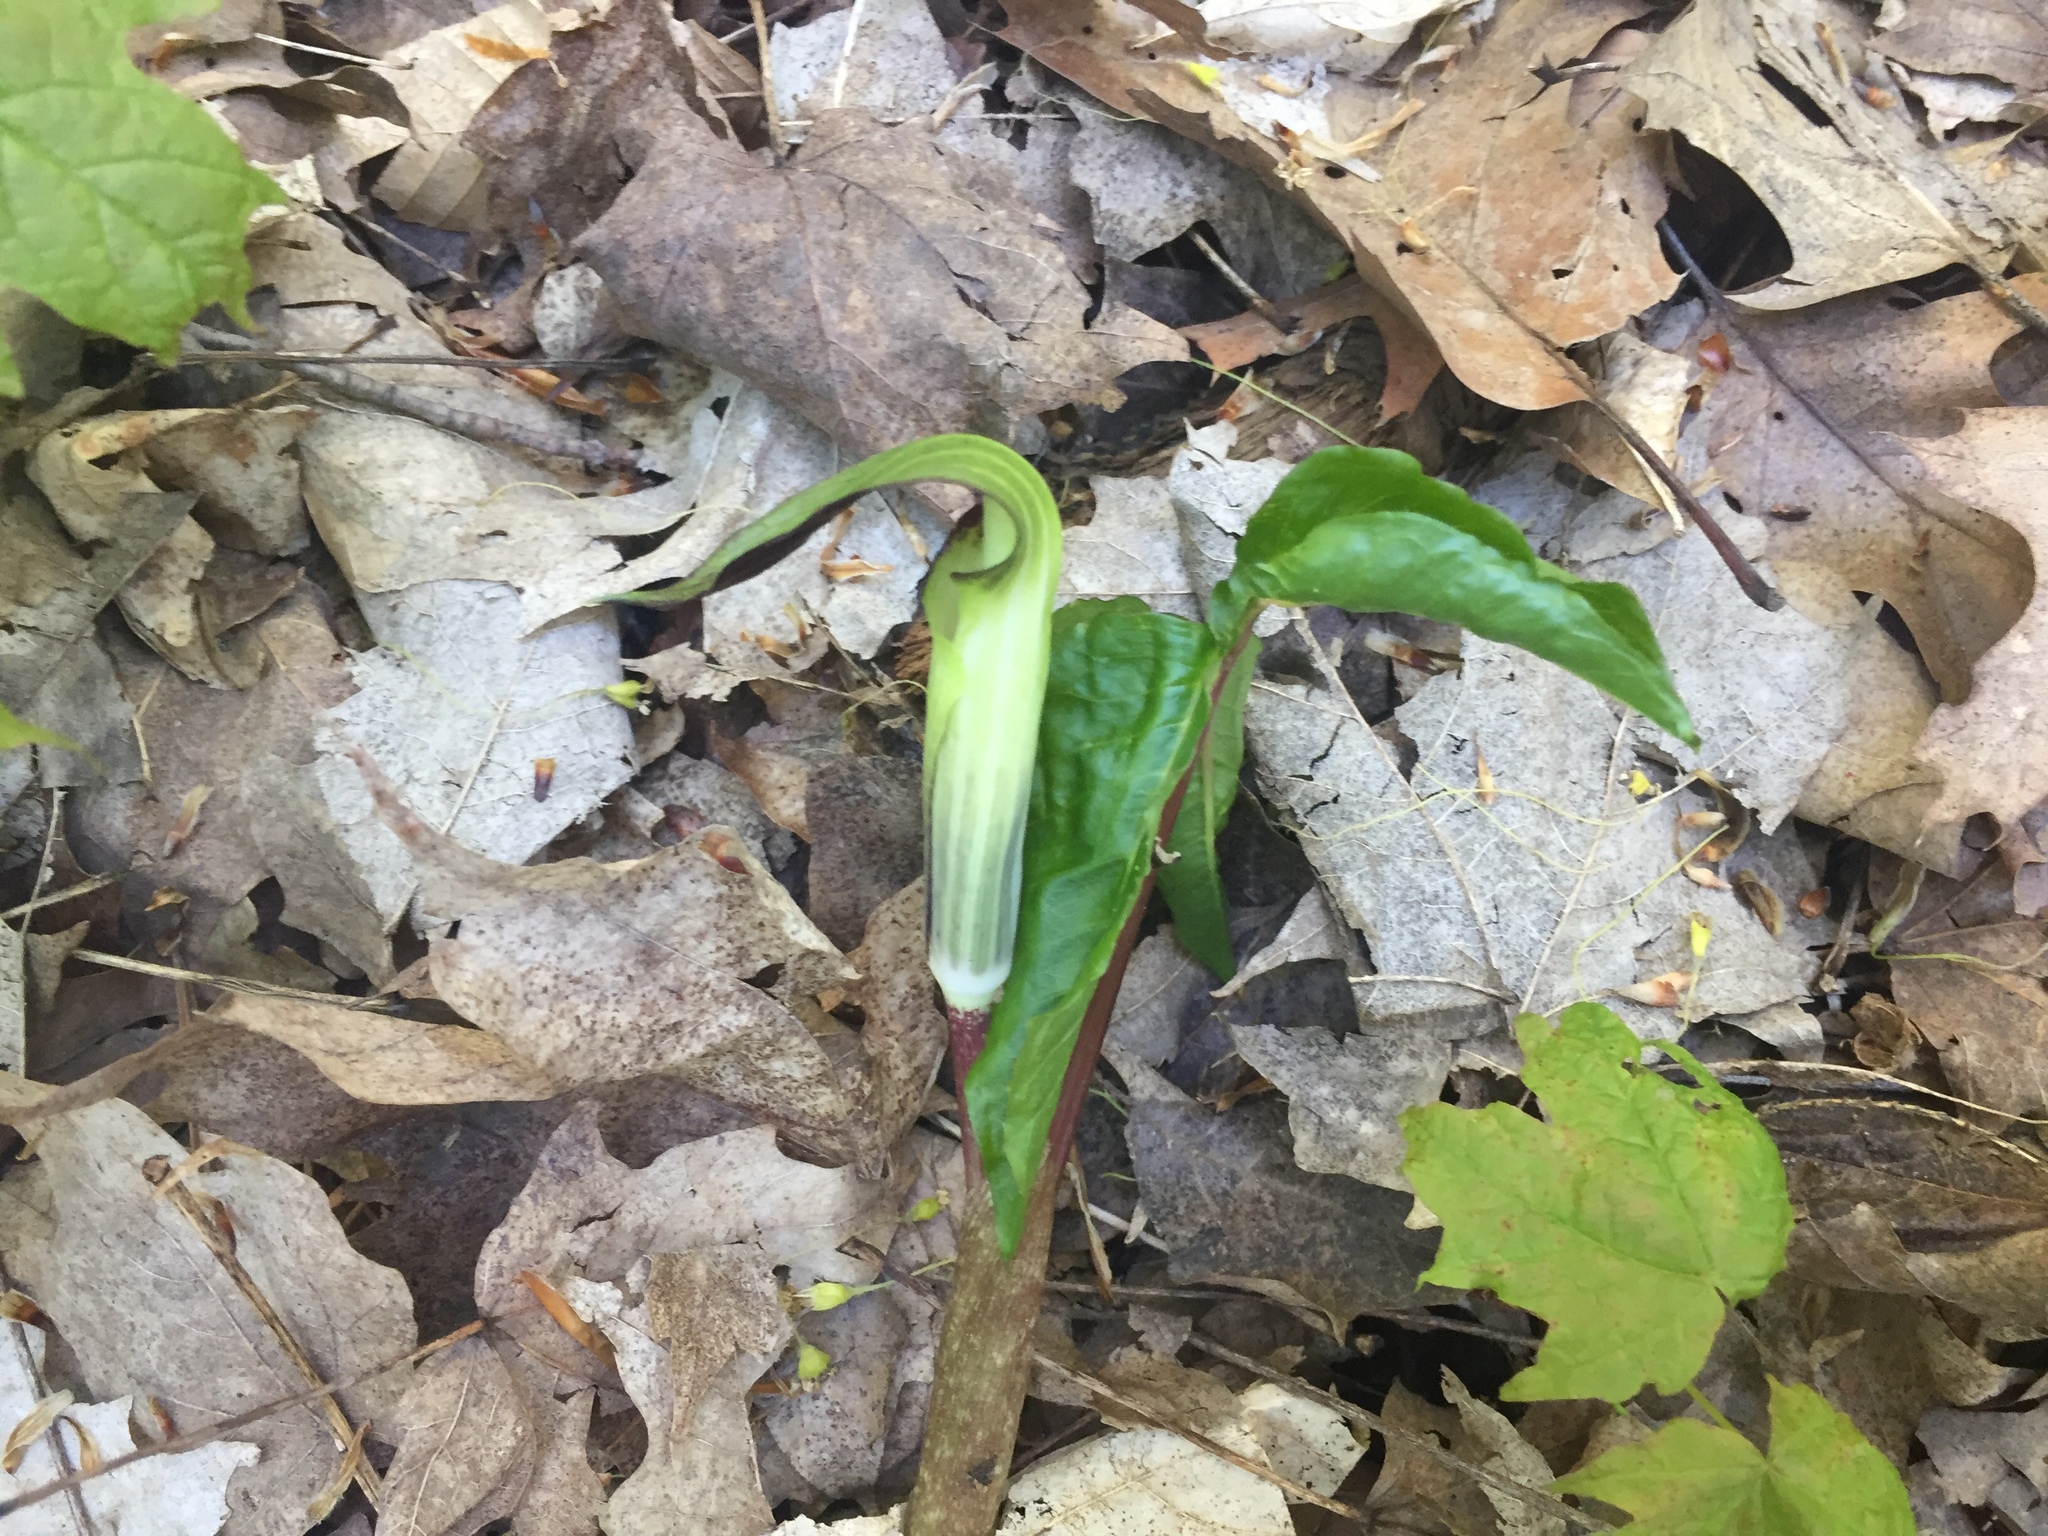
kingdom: Plantae
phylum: Tracheophyta
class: Liliopsida
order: Alismatales
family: Araceae
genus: Arisaema
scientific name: Arisaema triphyllum
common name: Jack-in-the-pulpit
